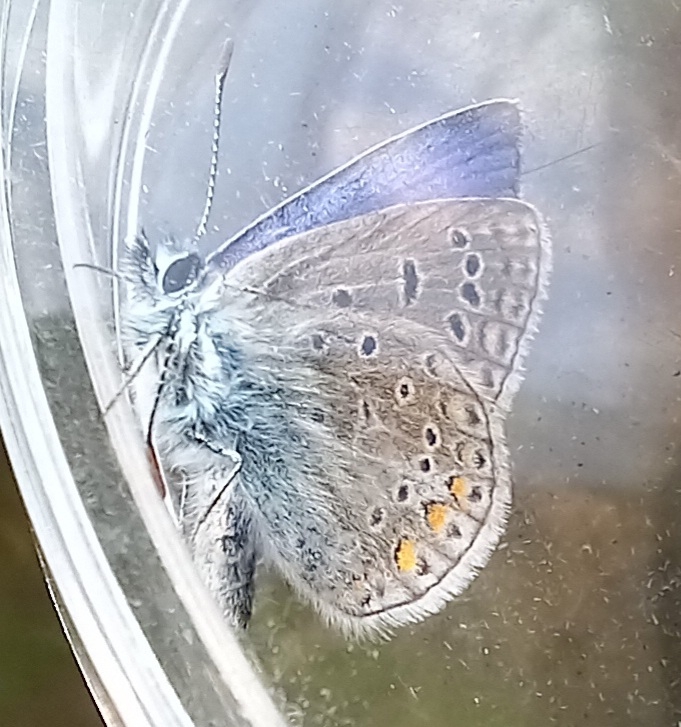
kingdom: Animalia
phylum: Arthropoda
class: Insecta
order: Lepidoptera
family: Lycaenidae
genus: Polyommatus
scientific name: Polyommatus icarus
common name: Common blue
